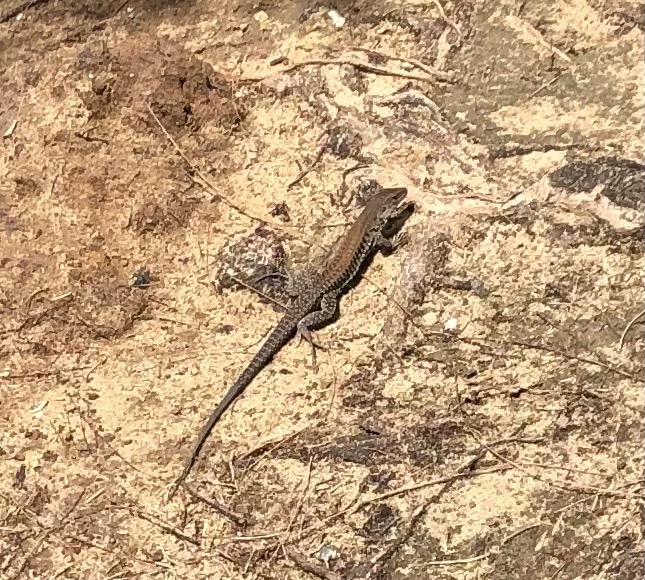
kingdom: Animalia
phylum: Chordata
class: Squamata
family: Teiidae
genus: Pholidoscelis
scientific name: Pholidoscelis exsul
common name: Common puerto rican ameiva
